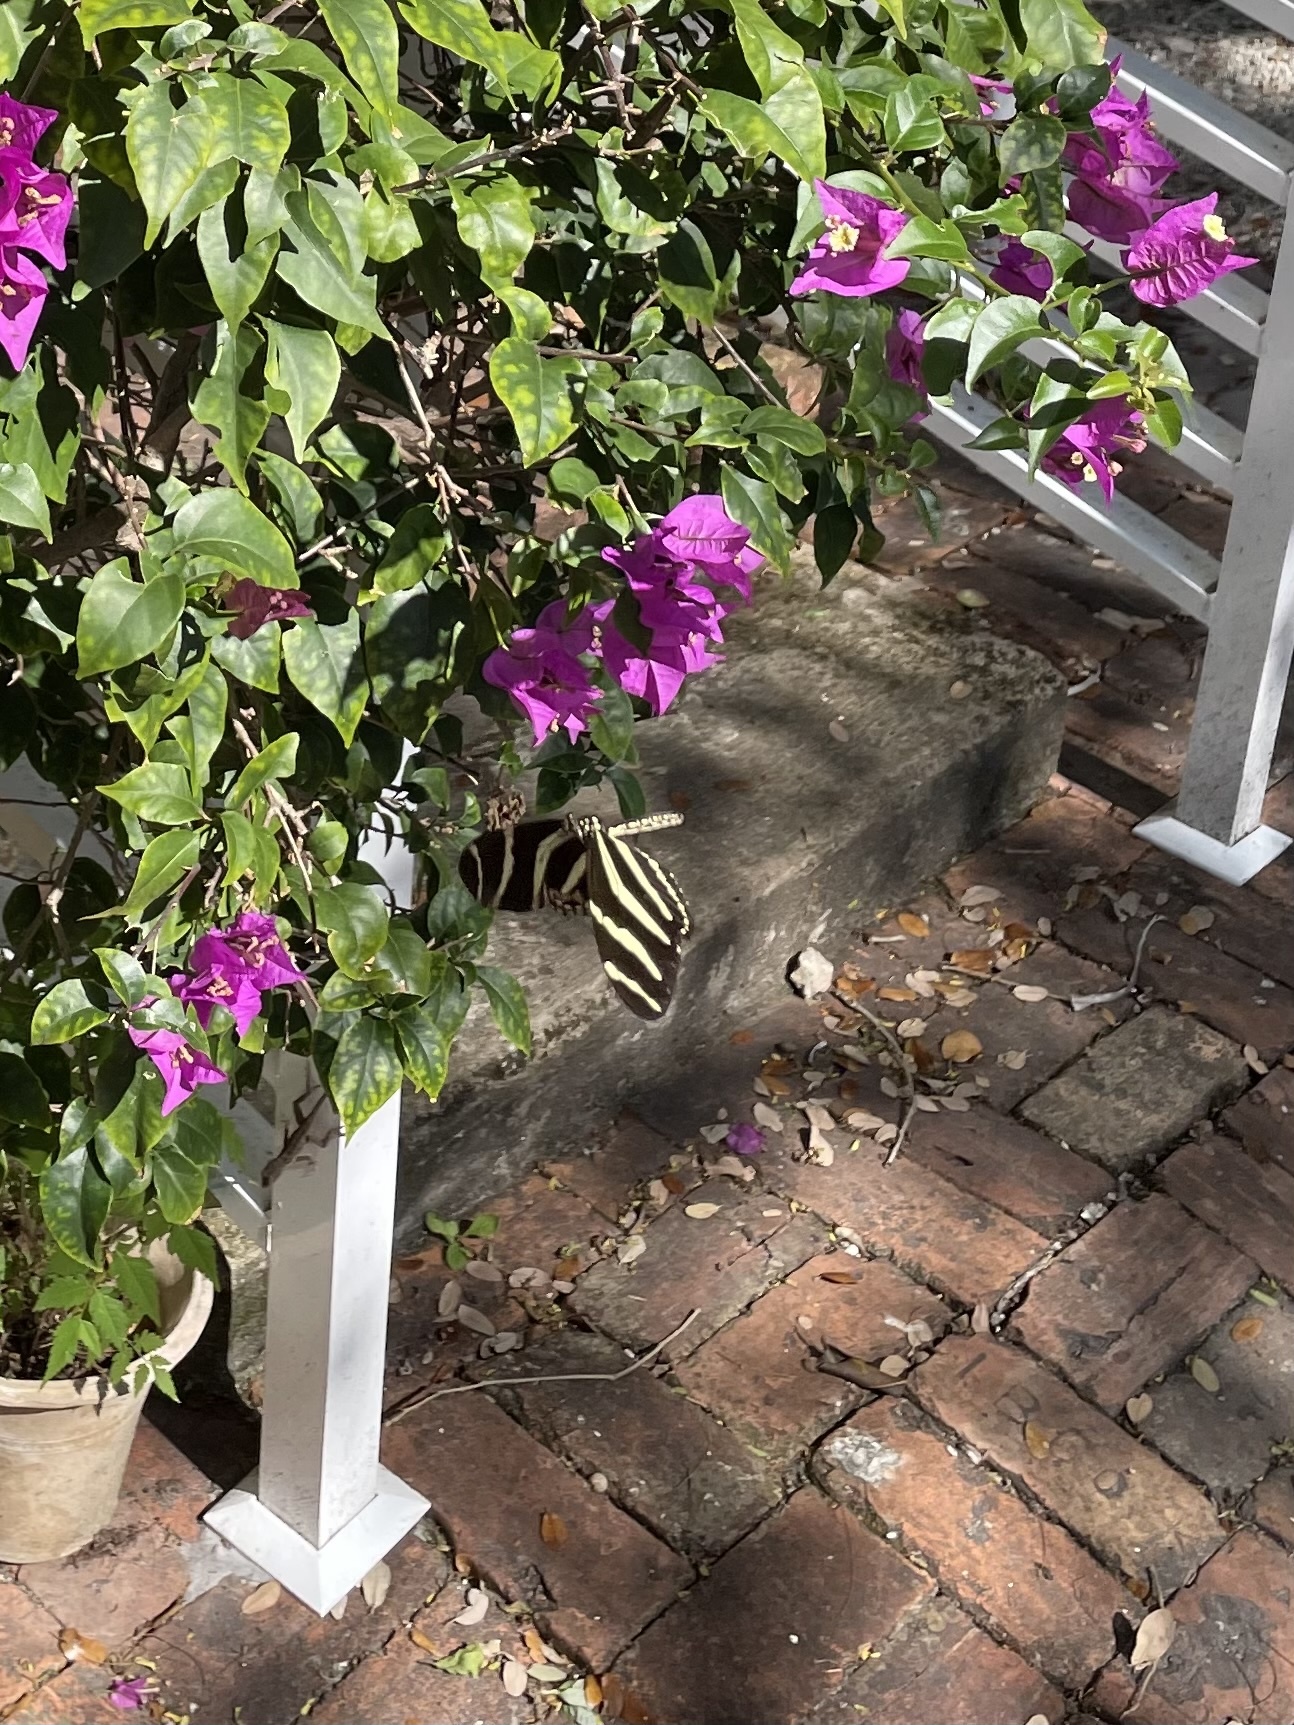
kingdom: Animalia
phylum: Arthropoda
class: Insecta
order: Lepidoptera
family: Nymphalidae
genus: Heliconius
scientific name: Heliconius charithonia
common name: Zebra long wing
